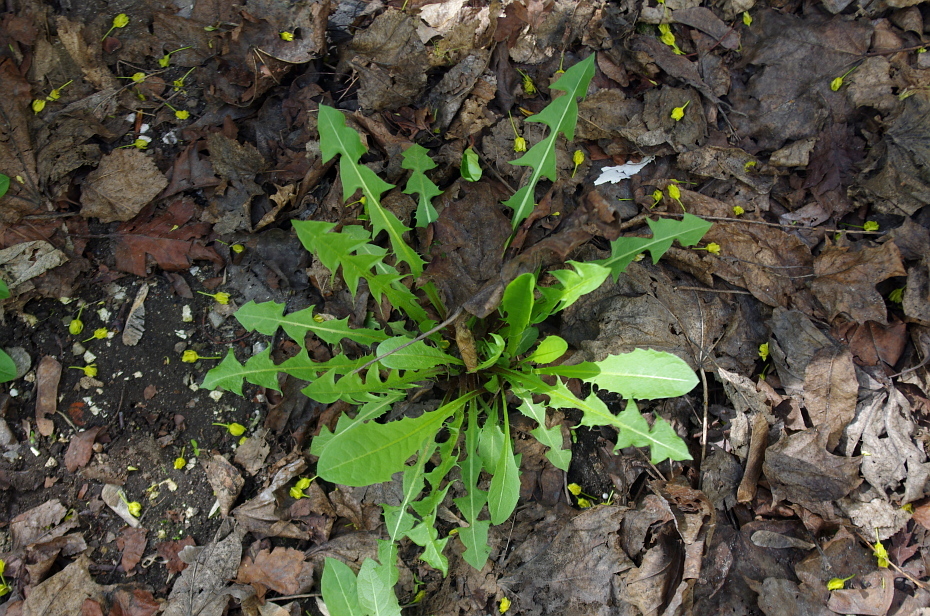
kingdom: Plantae
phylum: Tracheophyta
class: Magnoliopsida
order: Asterales
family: Asteraceae
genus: Taraxacum
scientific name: Taraxacum officinale
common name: Common dandelion
